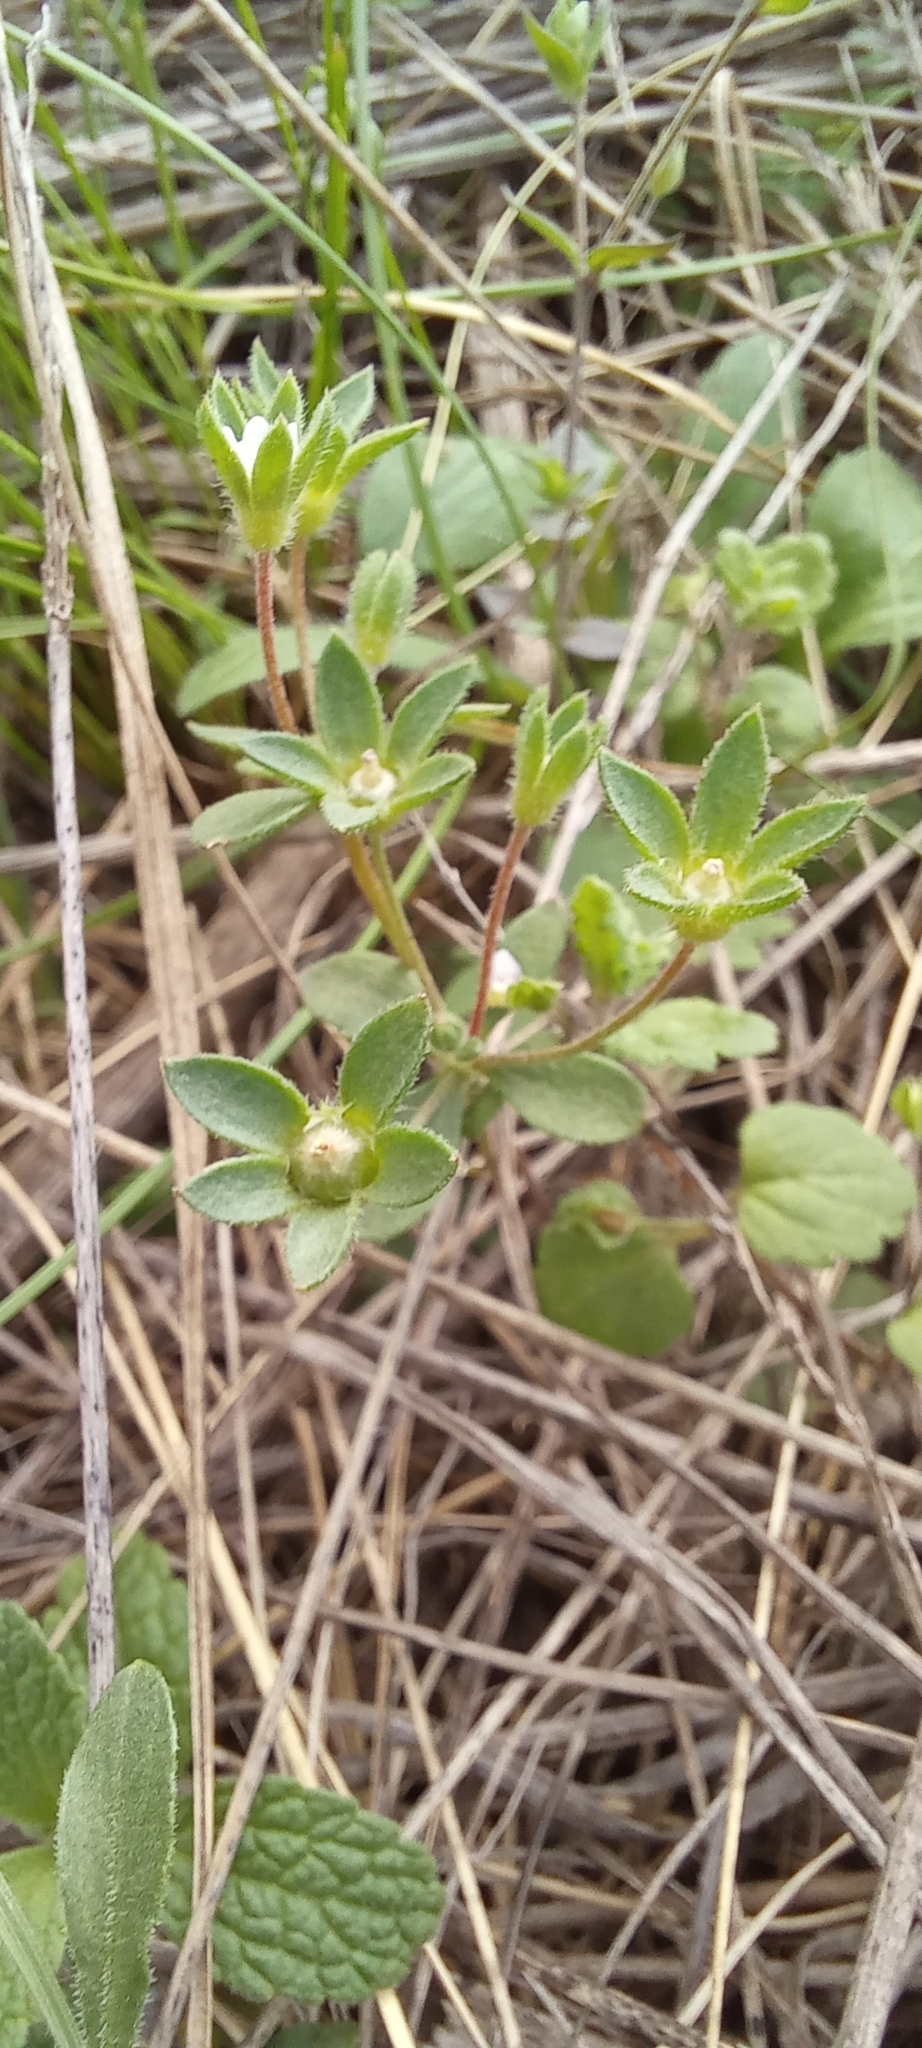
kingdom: Plantae
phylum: Tracheophyta
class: Magnoliopsida
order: Ericales
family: Primulaceae
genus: Androsace
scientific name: Androsace maxima
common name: Annual androsace
